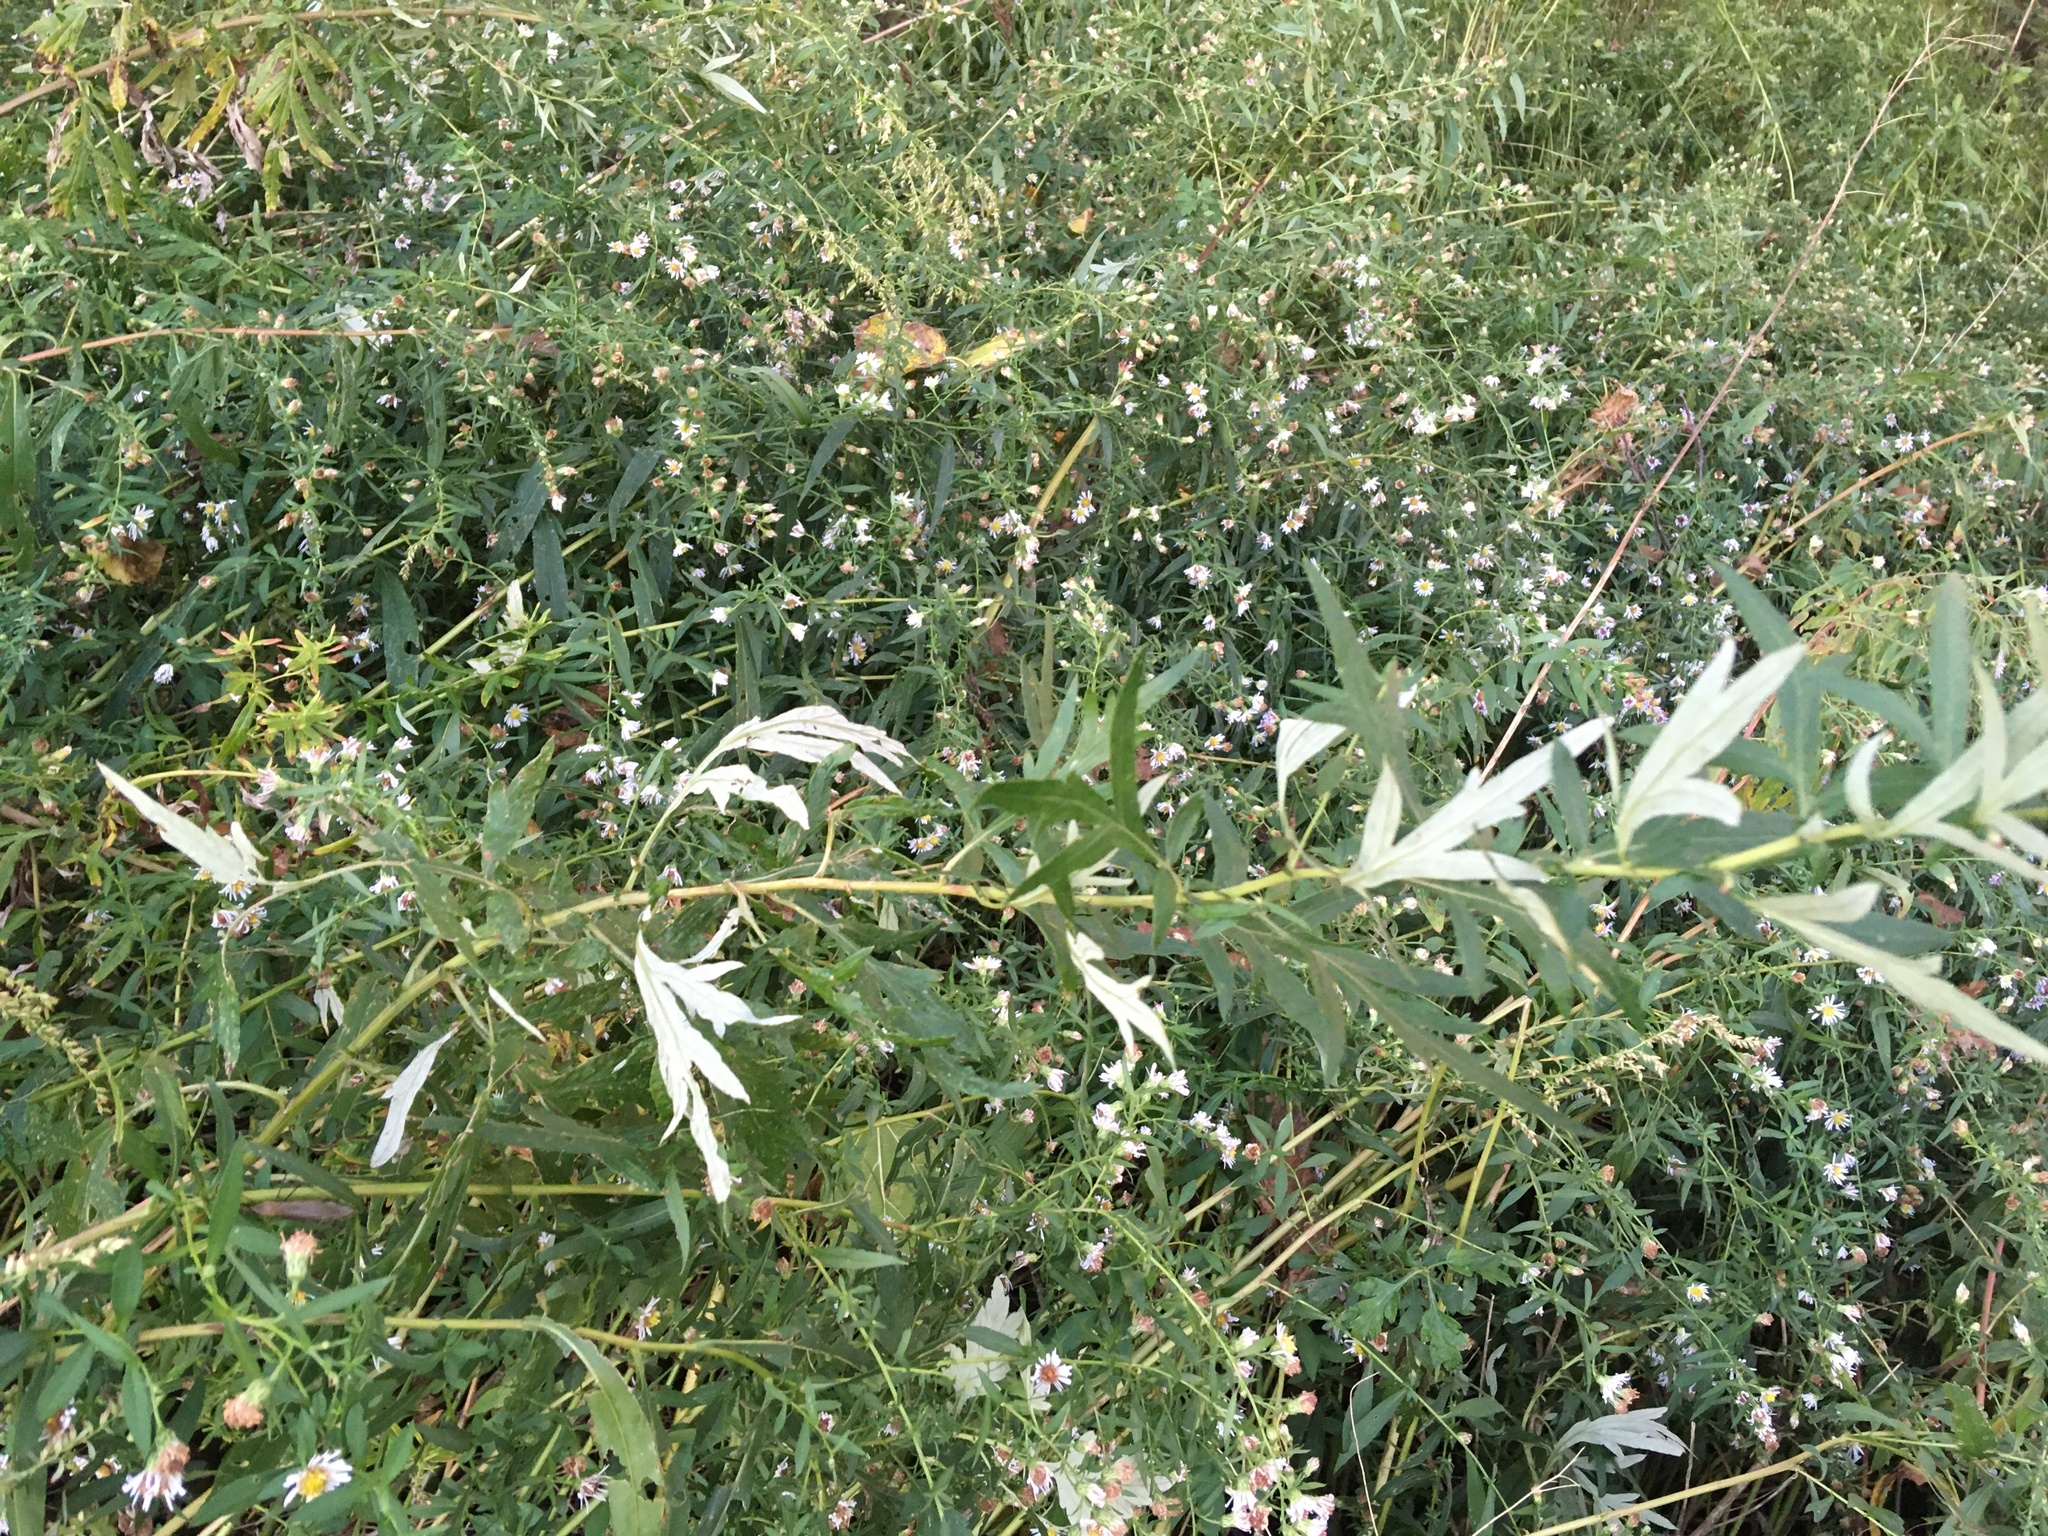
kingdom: Plantae
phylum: Tracheophyta
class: Magnoliopsida
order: Asterales
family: Asteraceae
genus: Artemisia
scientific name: Artemisia vulgaris
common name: Mugwort
